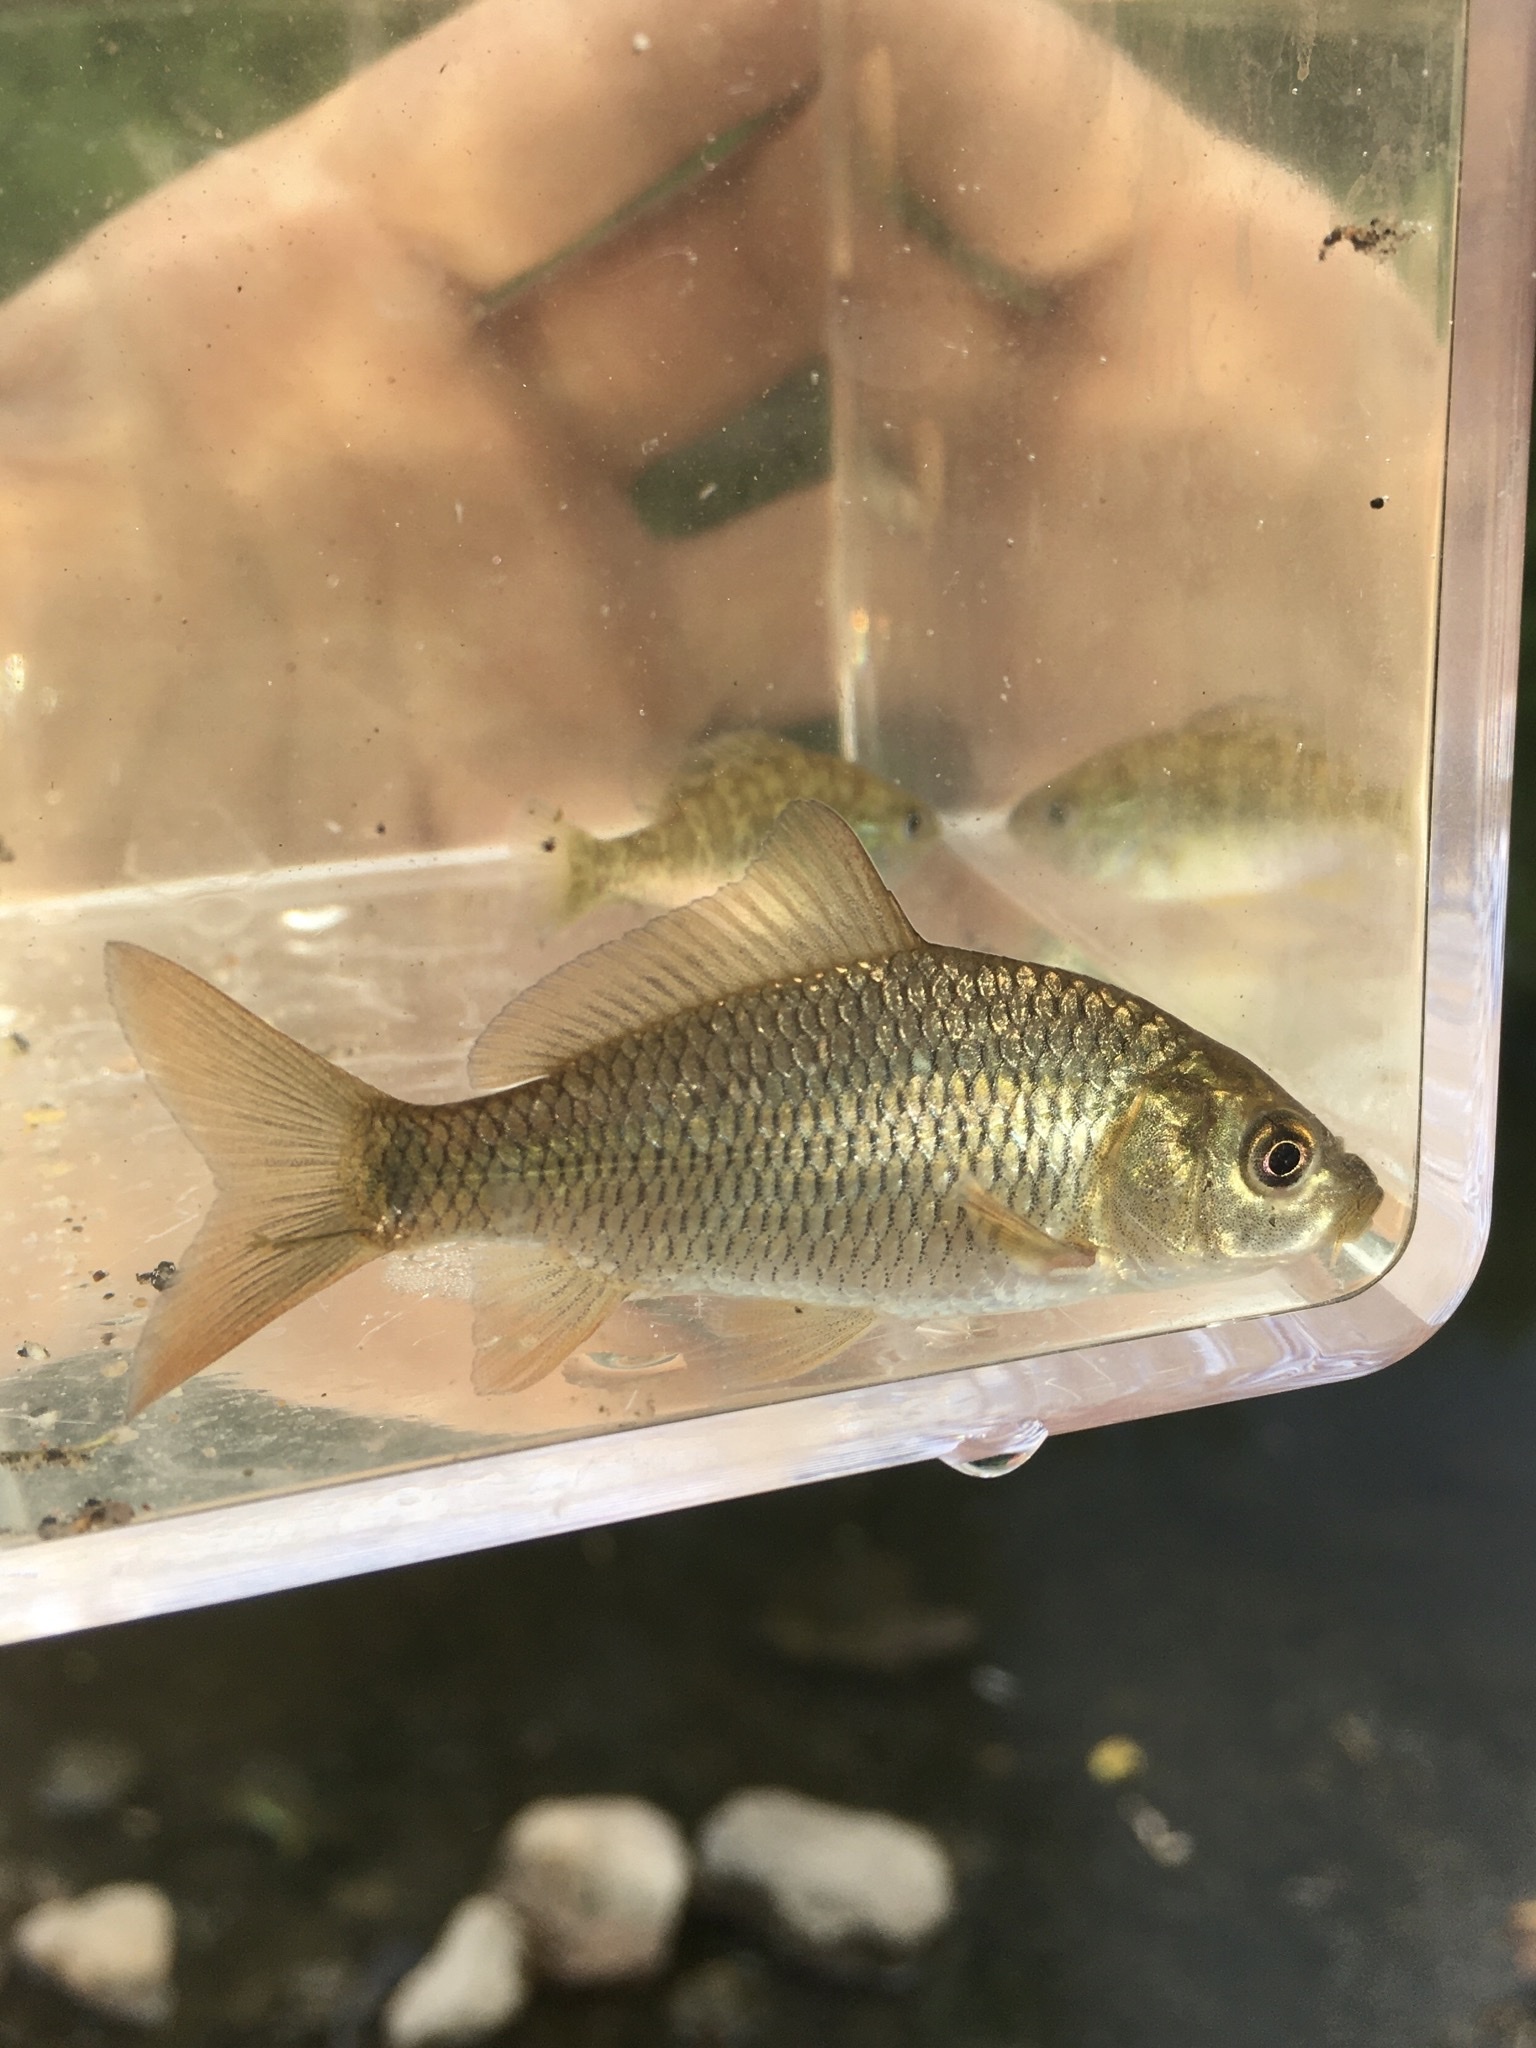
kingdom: Animalia
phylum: Chordata
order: Cypriniformes
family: Cyprinidae
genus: Cyprinus
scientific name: Cyprinus carpio
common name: Common carp
